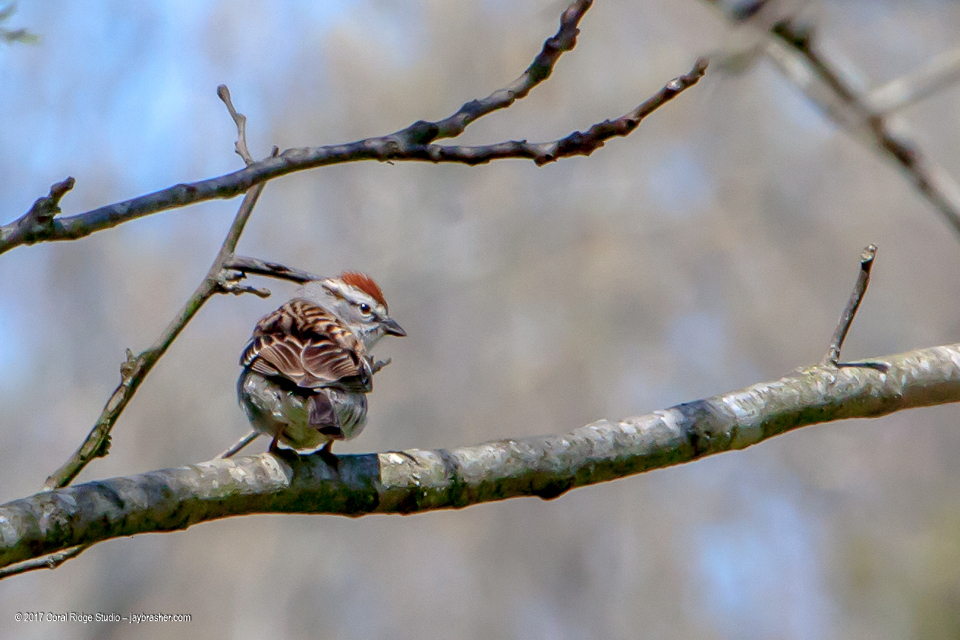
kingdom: Animalia
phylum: Chordata
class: Aves
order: Passeriformes
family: Passerellidae
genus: Spizella
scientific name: Spizella passerina
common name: Chipping sparrow
